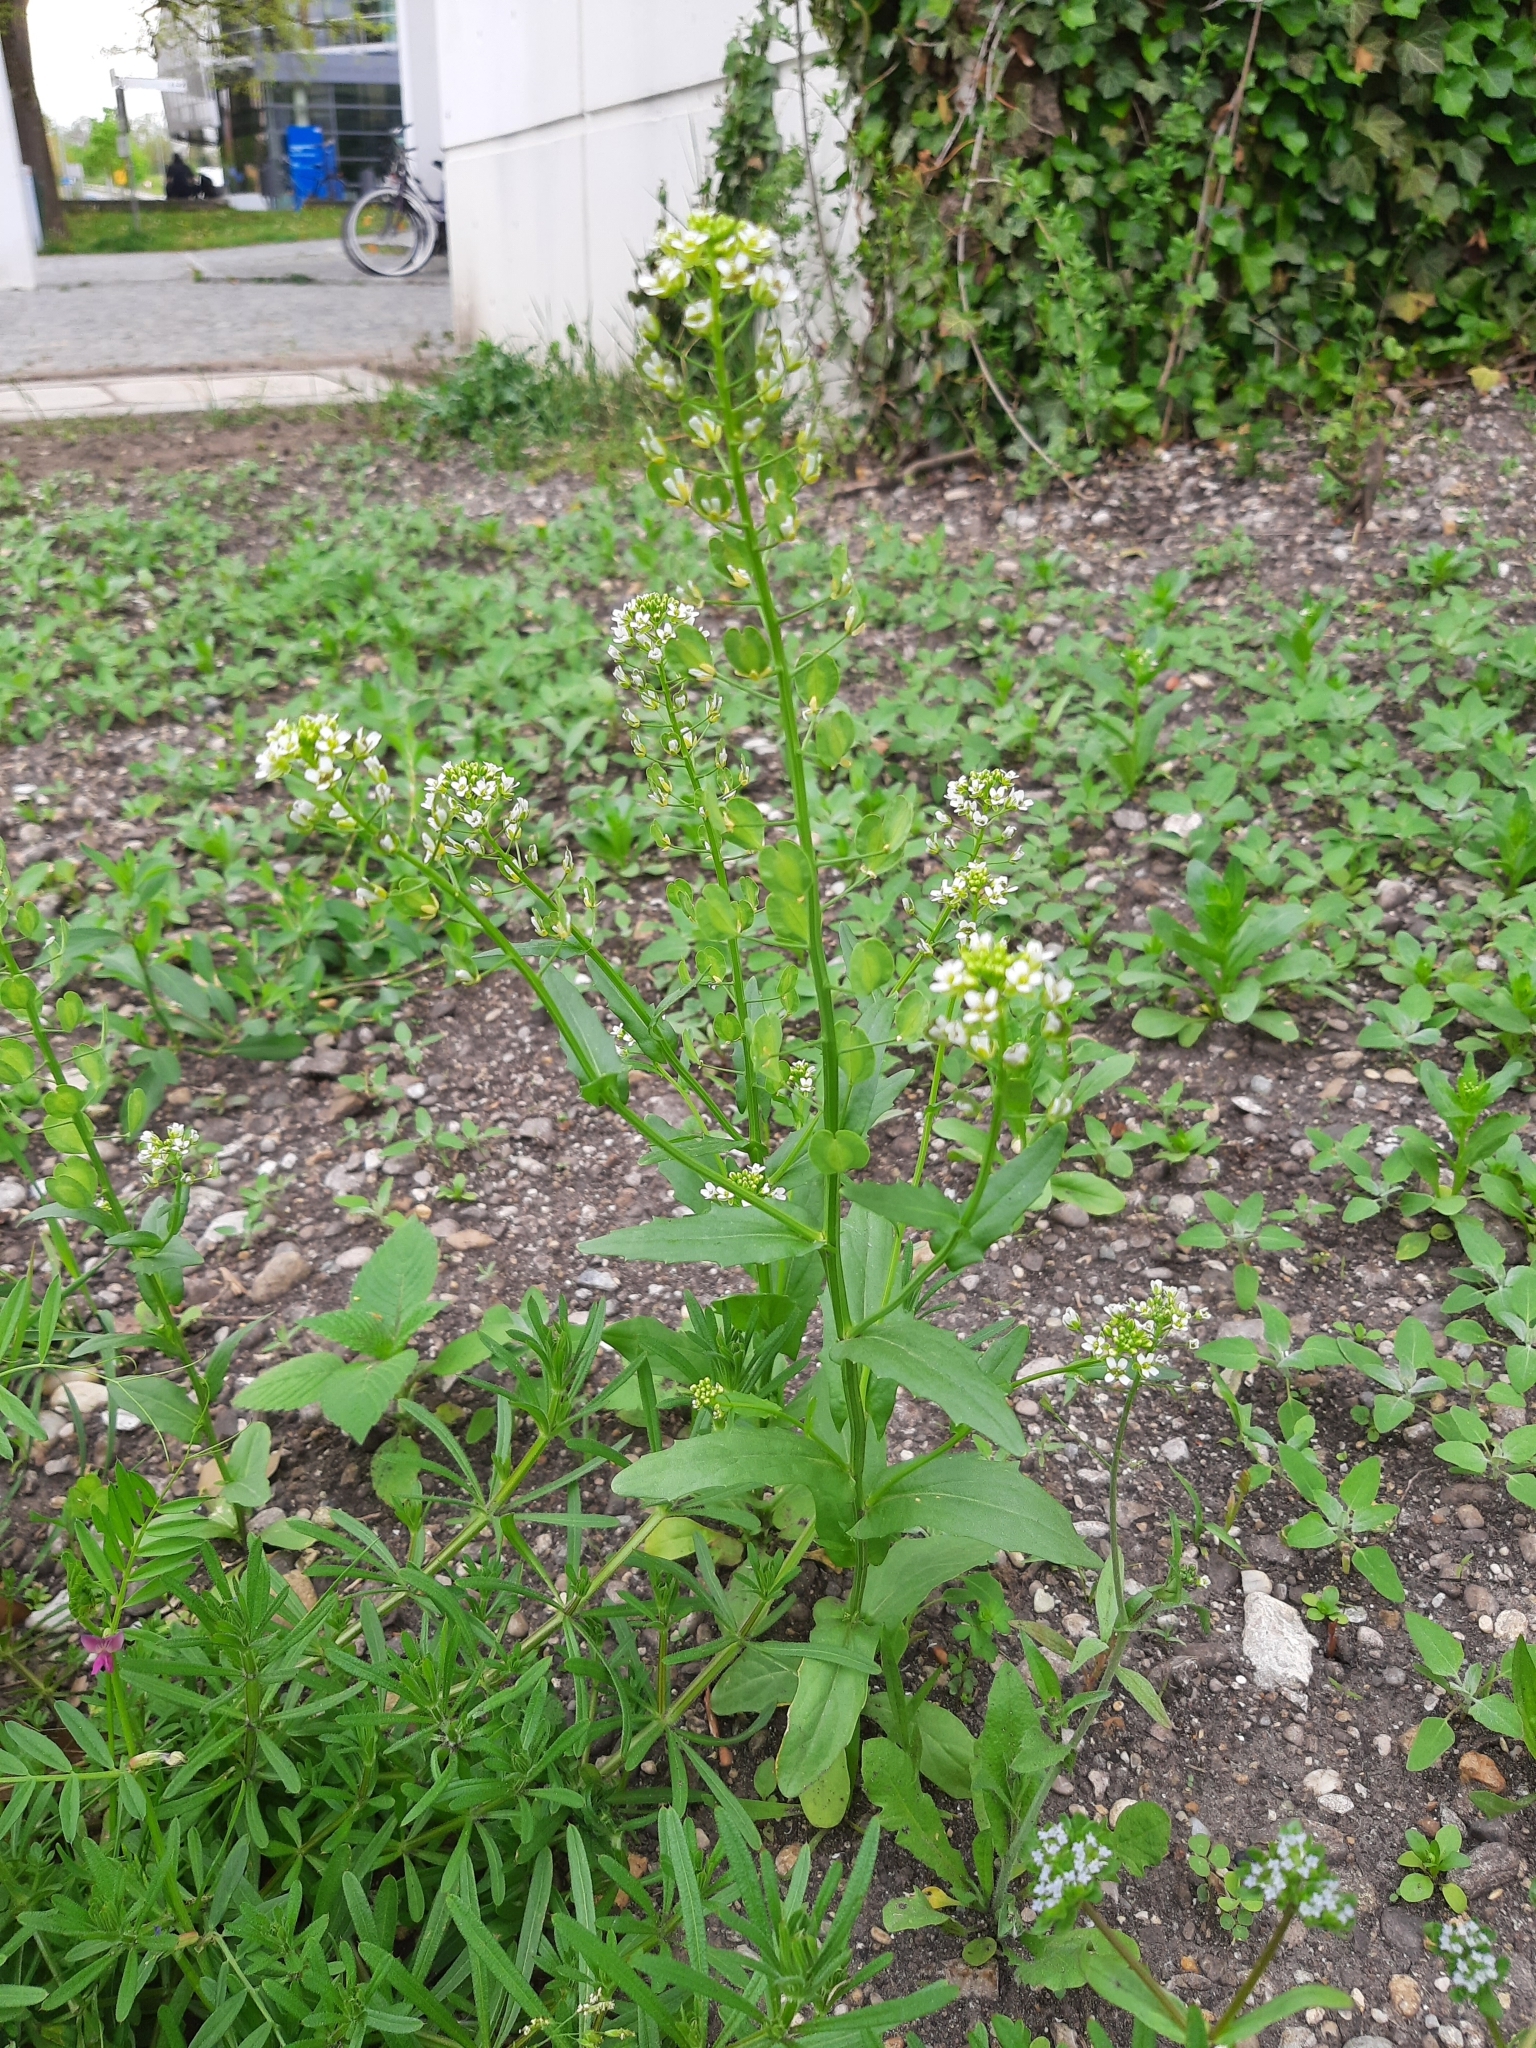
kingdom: Plantae
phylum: Tracheophyta
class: Magnoliopsida
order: Brassicales
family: Brassicaceae
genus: Thlaspi
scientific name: Thlaspi arvense
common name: Field pennycress
